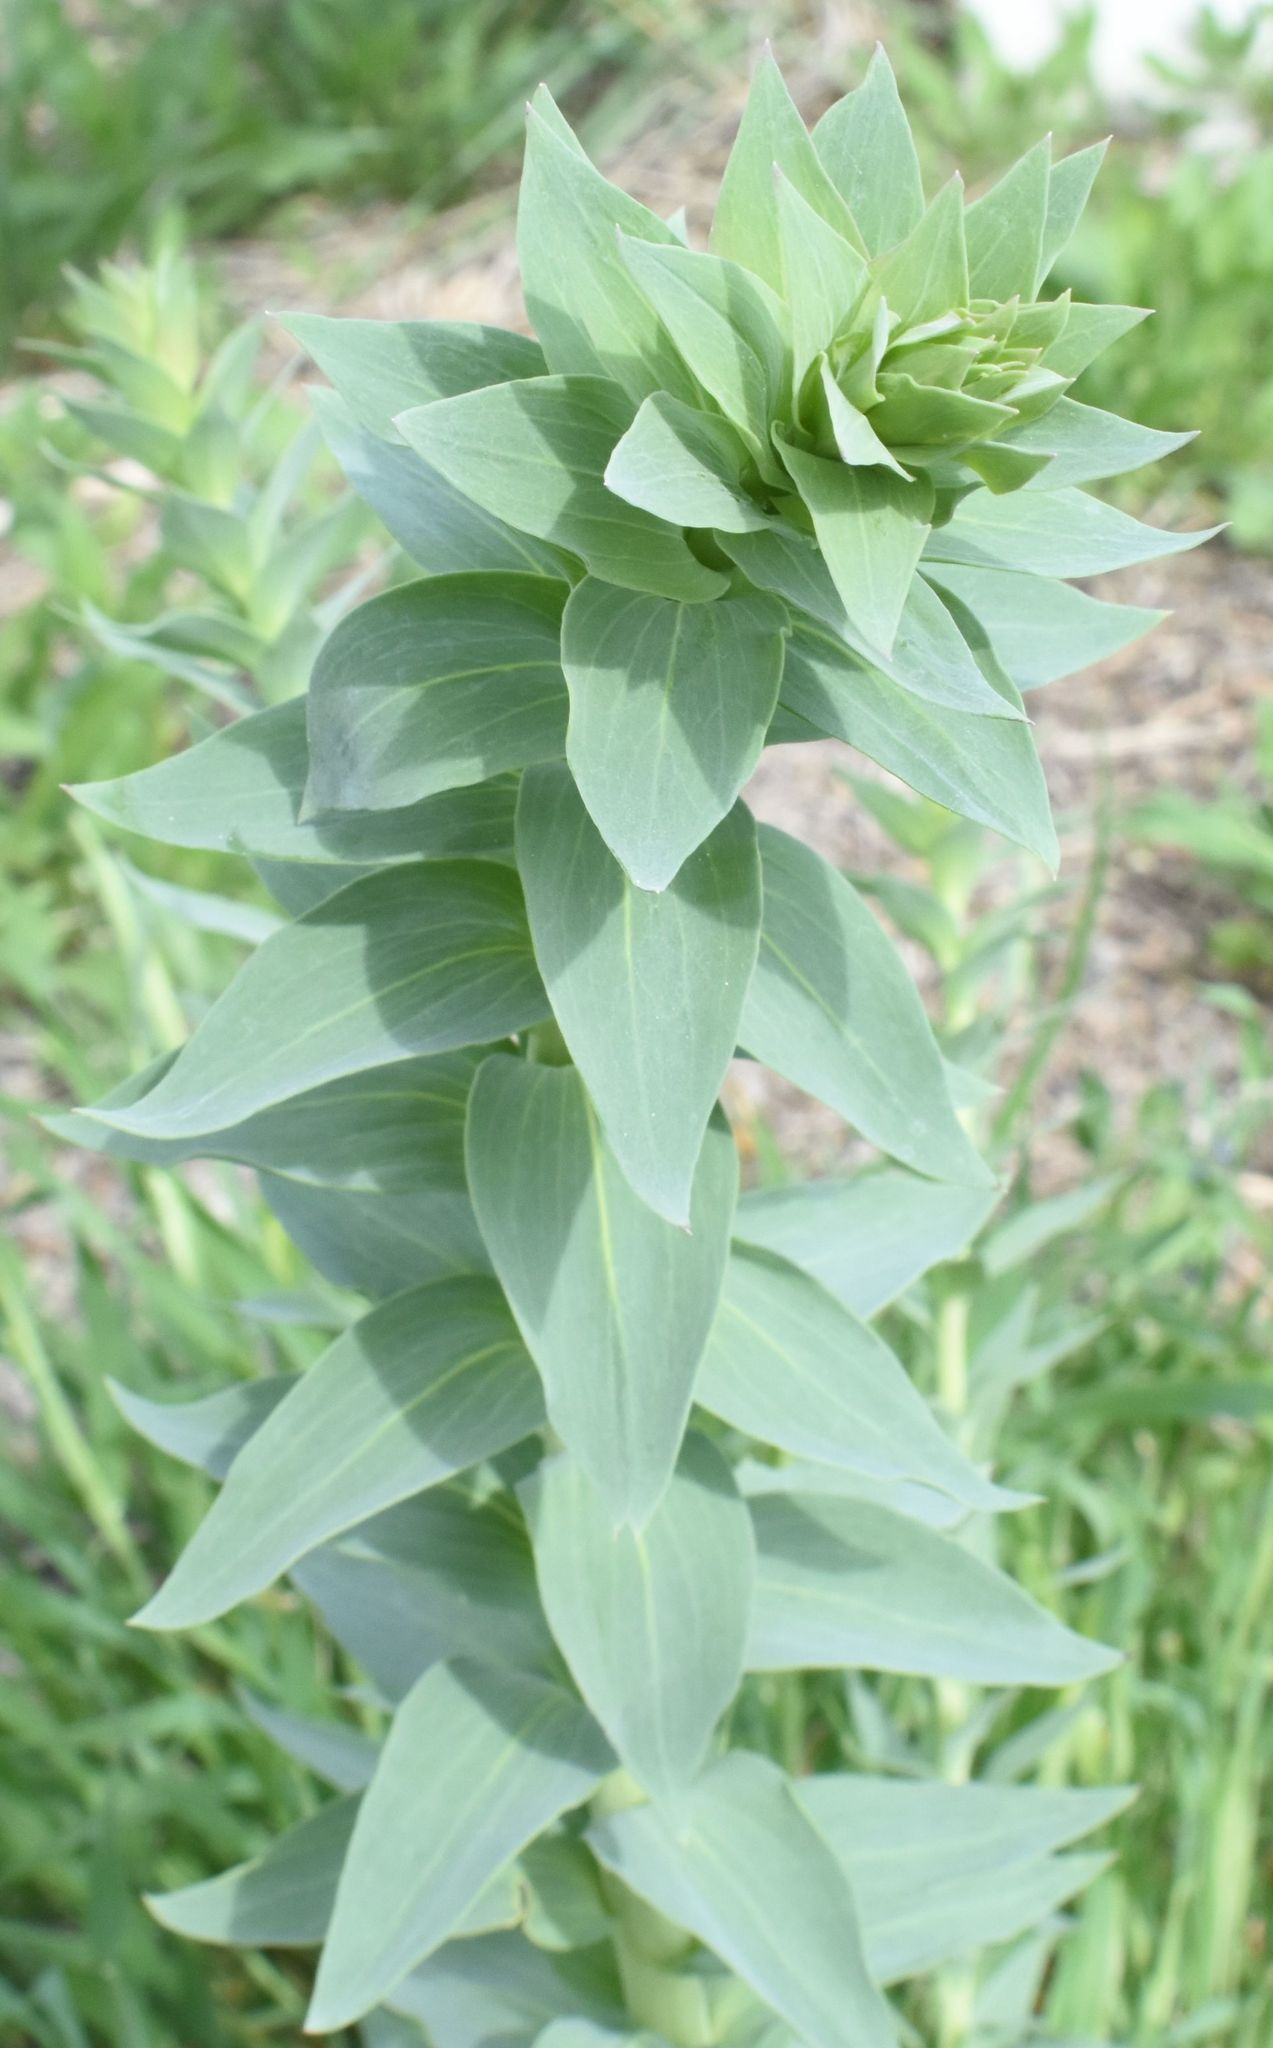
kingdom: Plantae
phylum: Tracheophyta
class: Magnoliopsida
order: Lamiales
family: Plantaginaceae
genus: Linaria
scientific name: Linaria dalmatica
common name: Dalmatian toadflax
